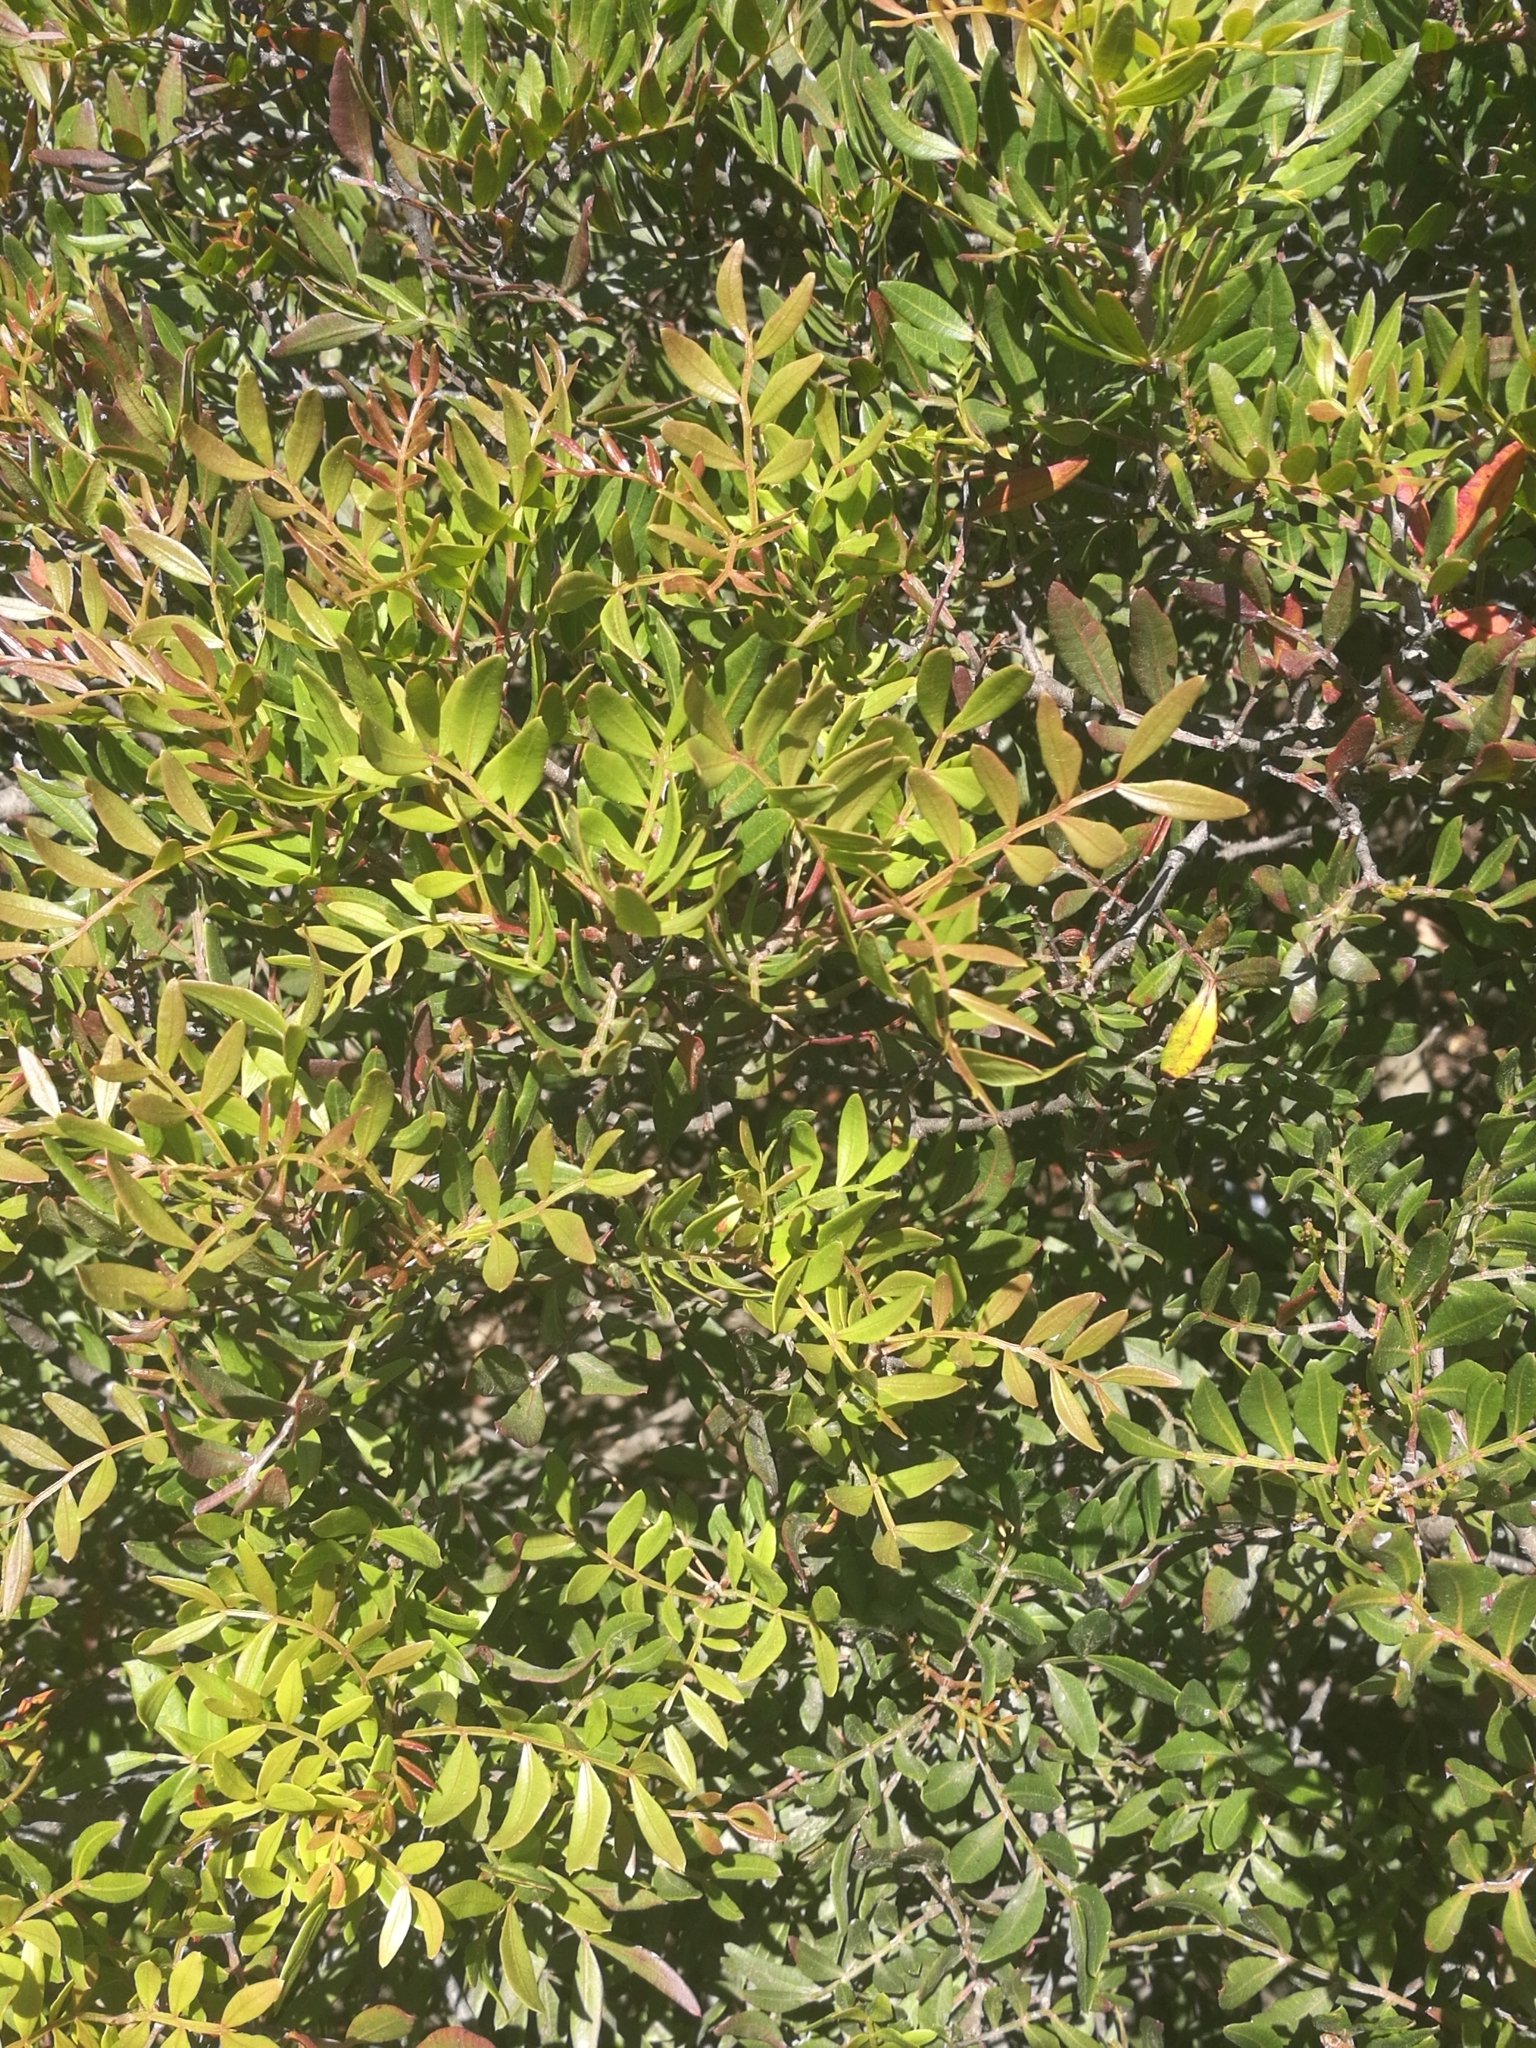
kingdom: Plantae
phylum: Tracheophyta
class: Magnoliopsida
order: Sapindales
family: Anacardiaceae
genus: Pistacia
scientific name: Pistacia lentiscus
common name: Lentisk
